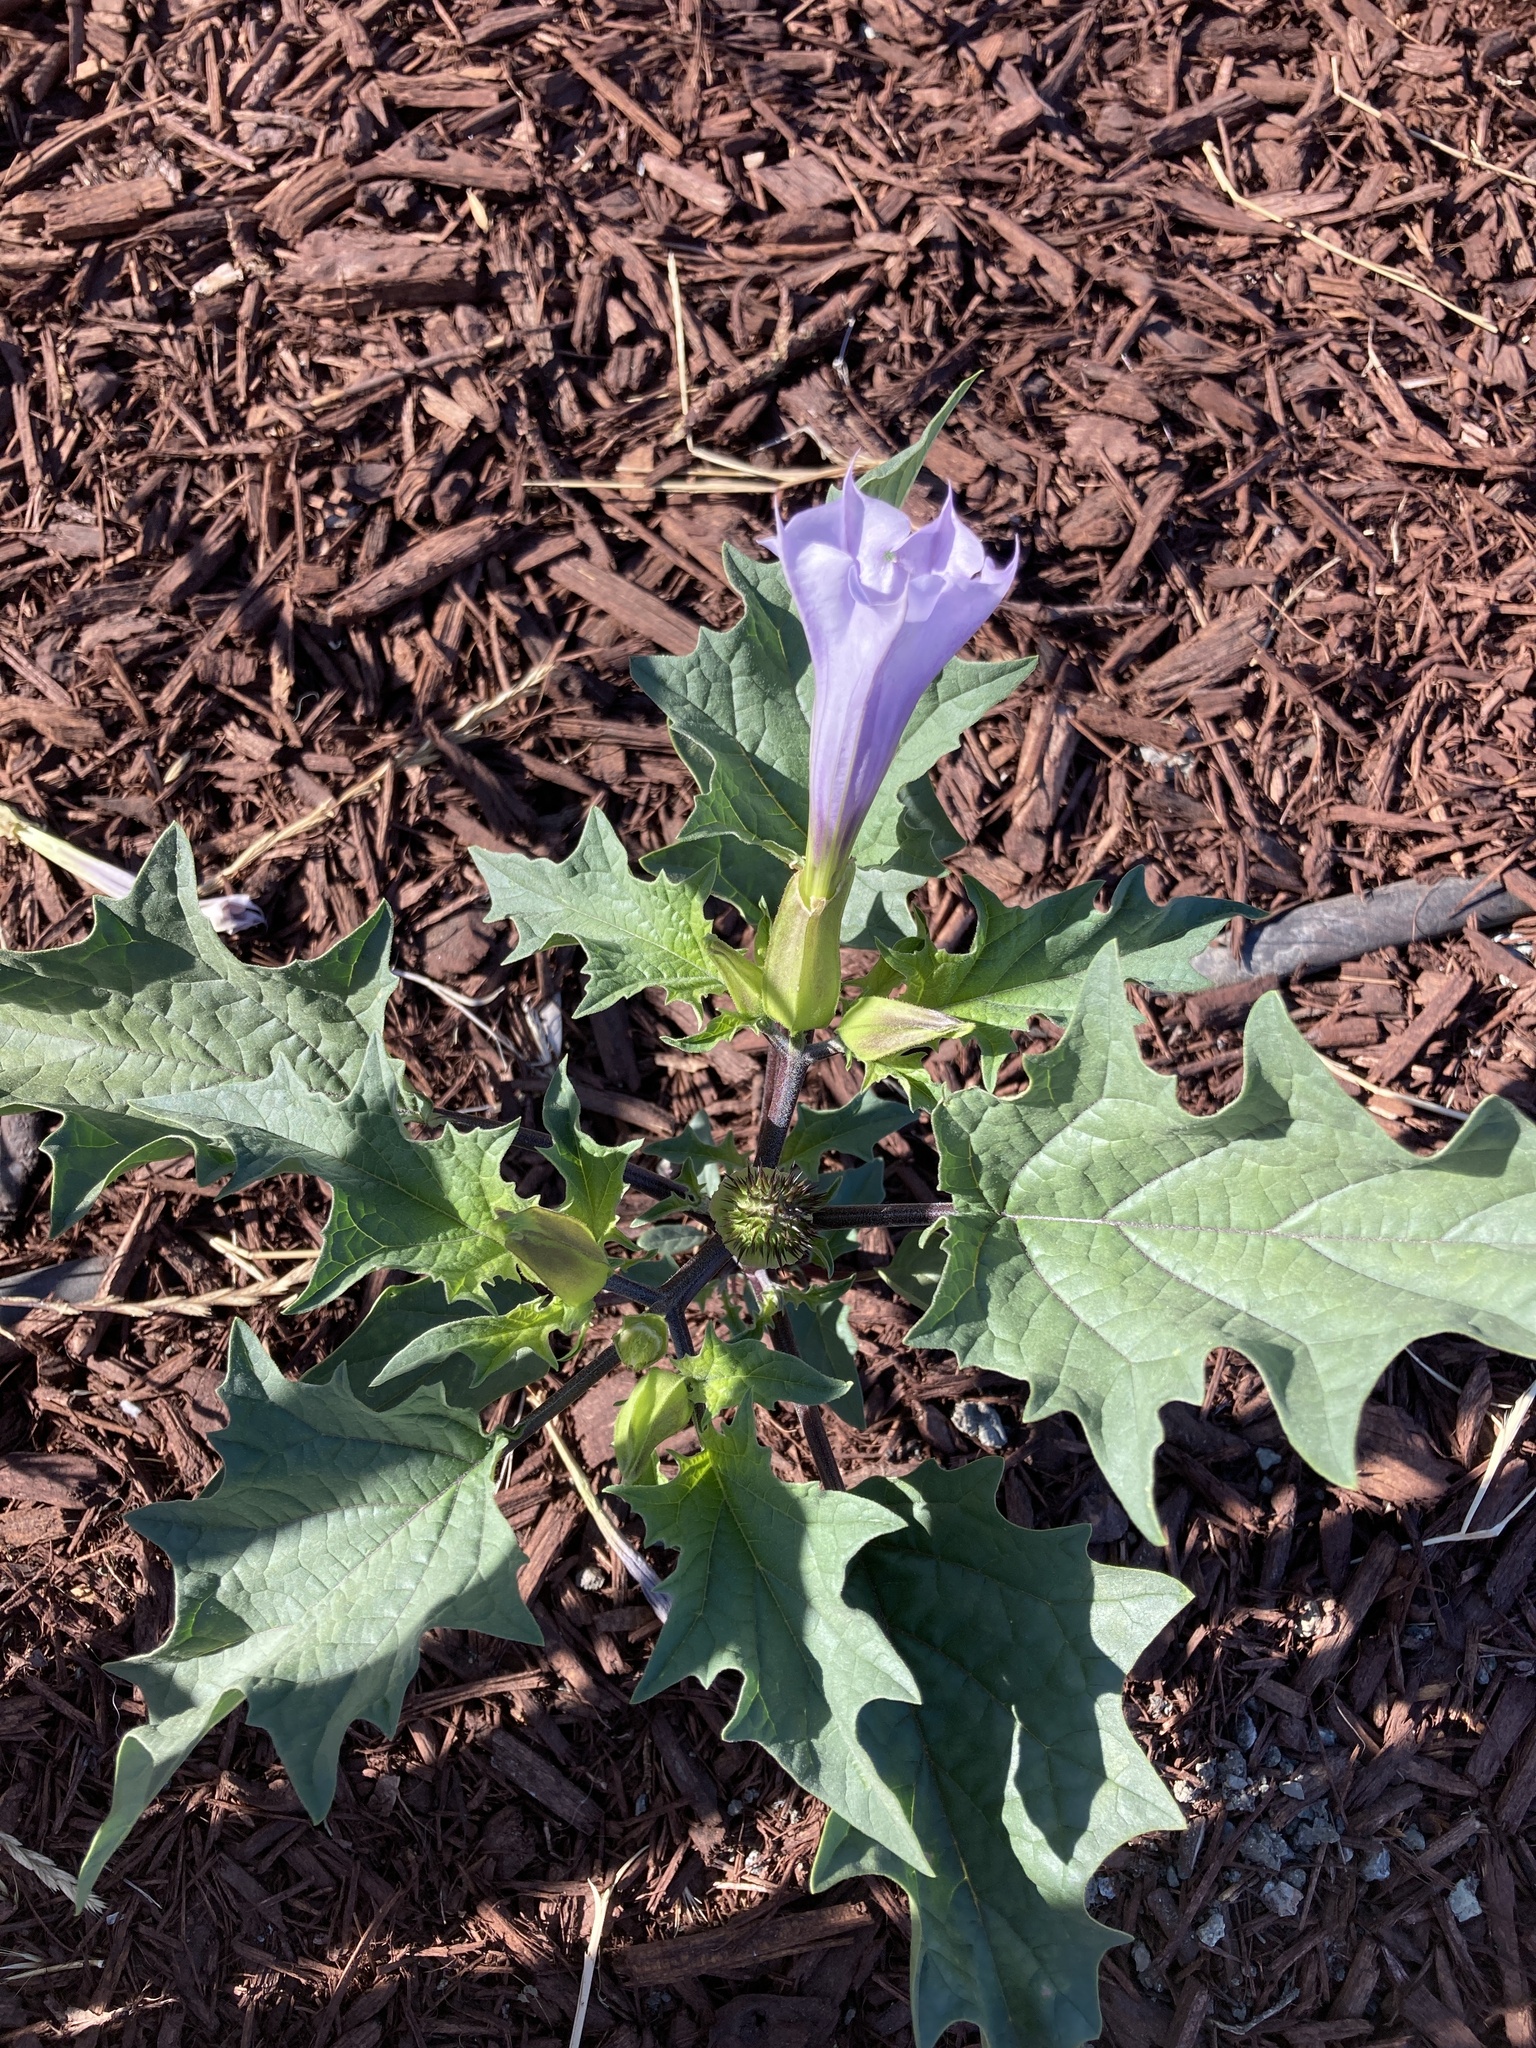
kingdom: Plantae
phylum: Tracheophyta
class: Magnoliopsida
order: Solanales
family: Solanaceae
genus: Datura
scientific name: Datura stramonium
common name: Thorn-apple
